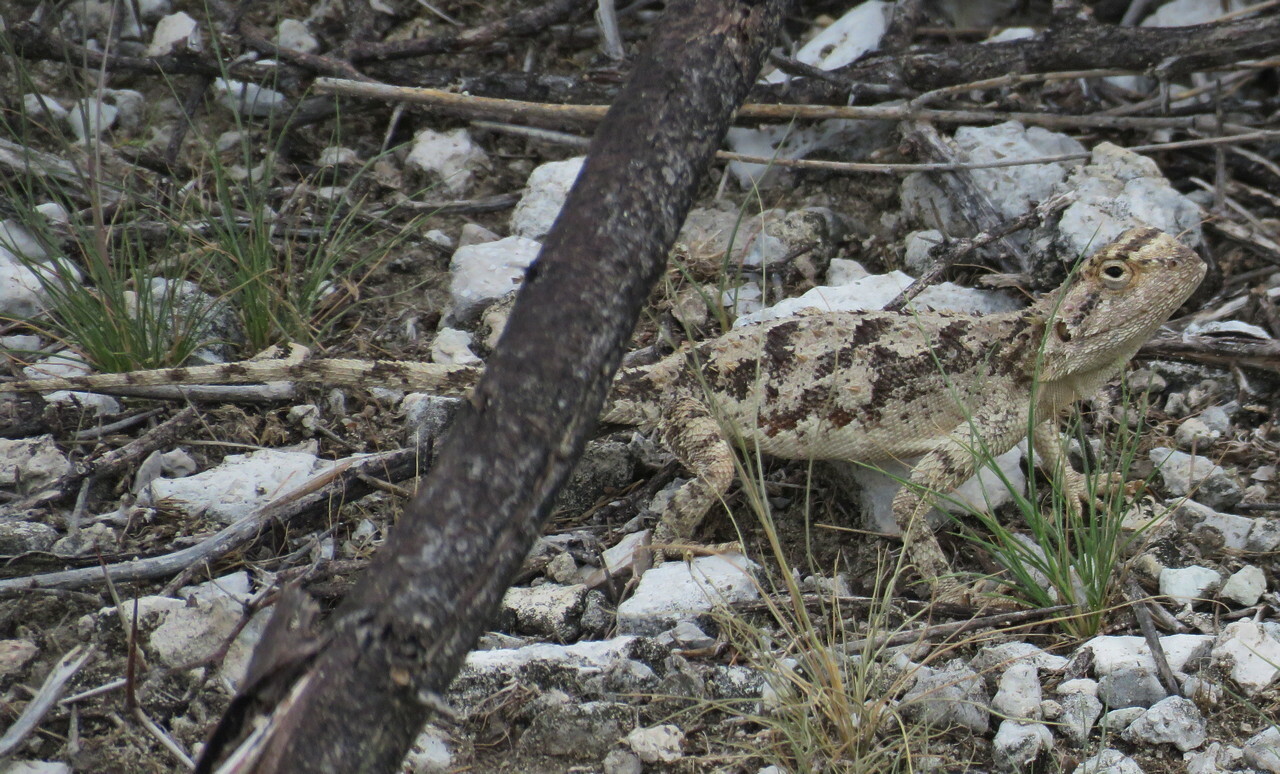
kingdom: Animalia
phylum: Chordata
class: Squamata
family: Agamidae
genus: Agama
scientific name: Agama aculeata
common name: Common ground agama
